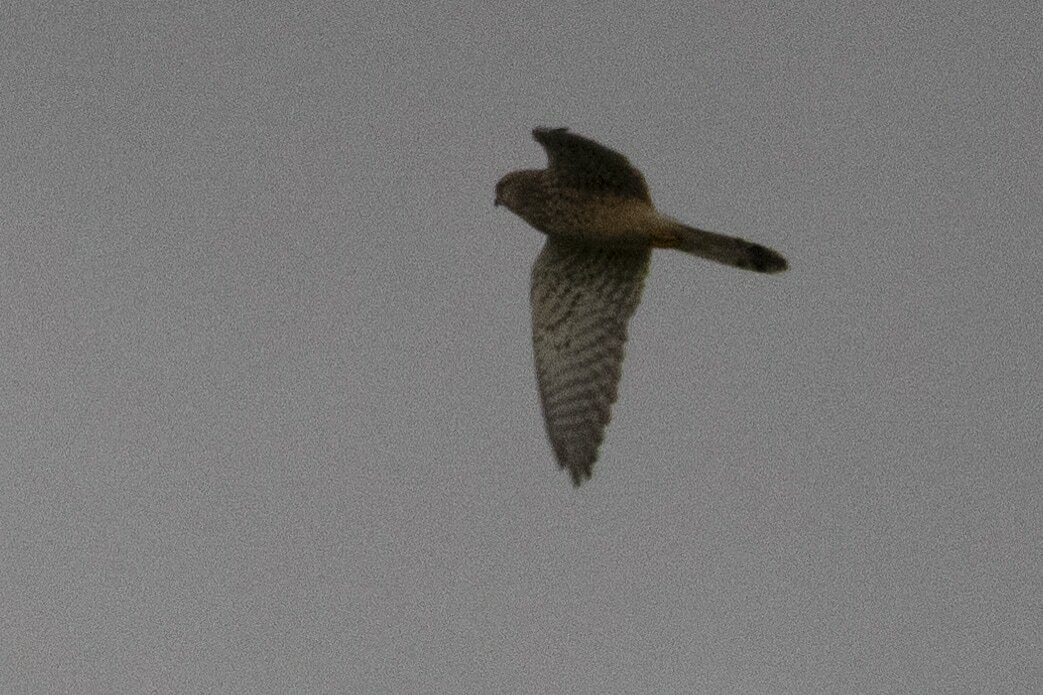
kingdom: Animalia
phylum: Chordata
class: Aves
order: Falconiformes
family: Falconidae
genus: Falco
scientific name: Falco tinnunculus
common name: Common kestrel
